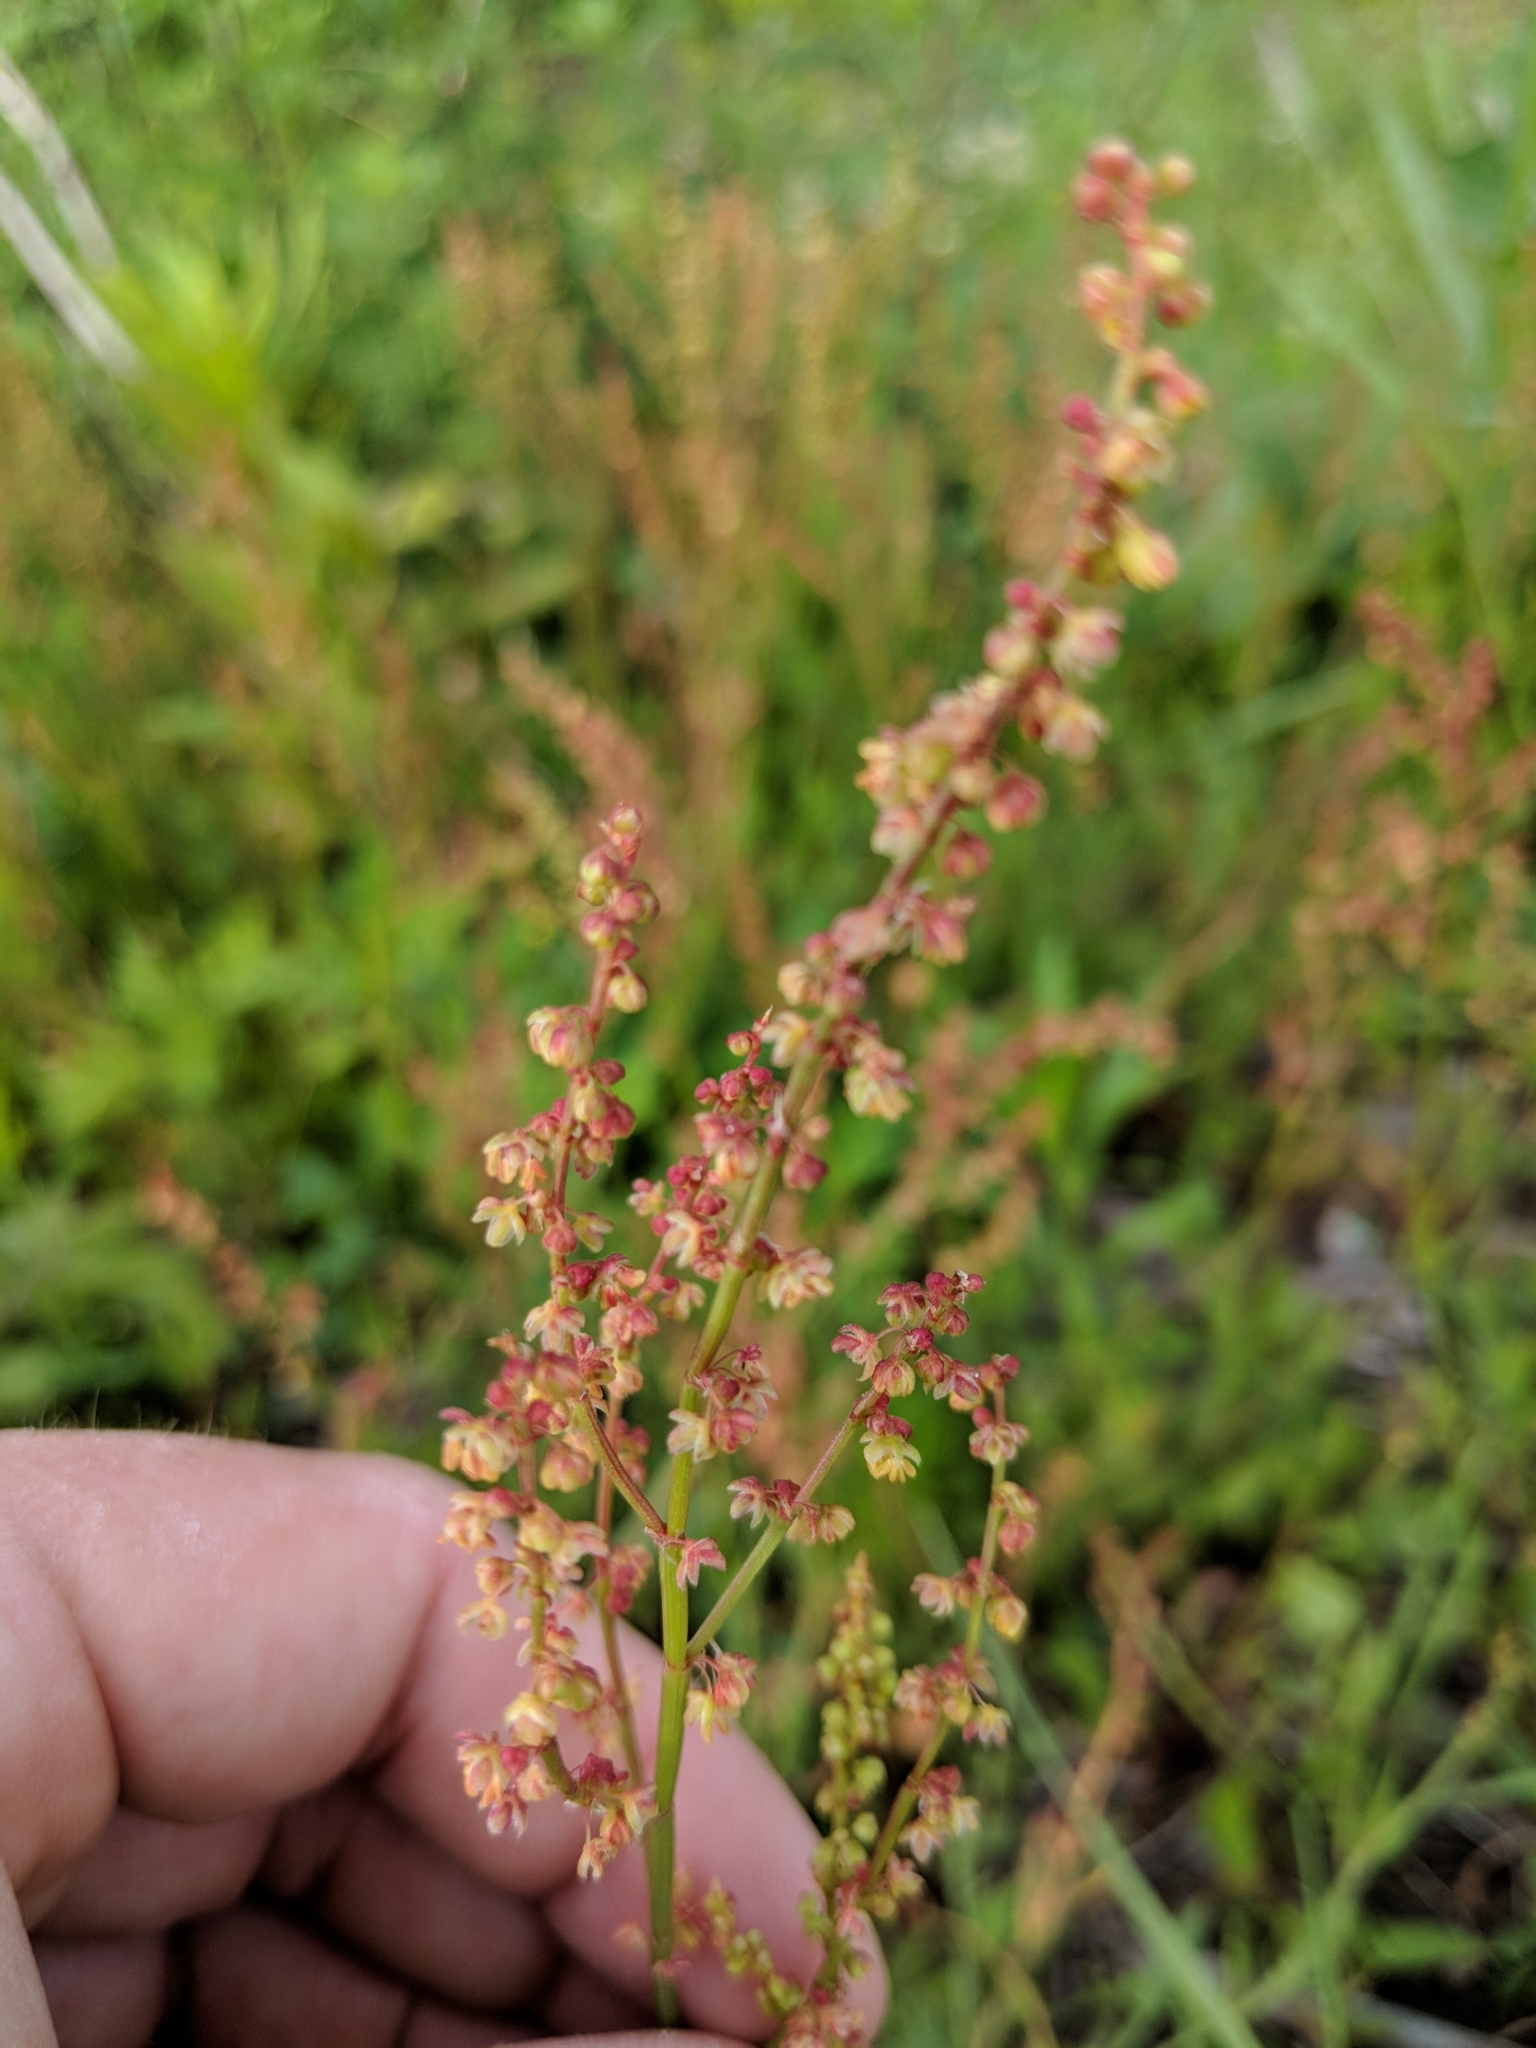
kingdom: Plantae
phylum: Tracheophyta
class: Magnoliopsida
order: Caryophyllales
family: Polygonaceae
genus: Rumex
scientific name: Rumex acetosella
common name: Common sheep sorrel
